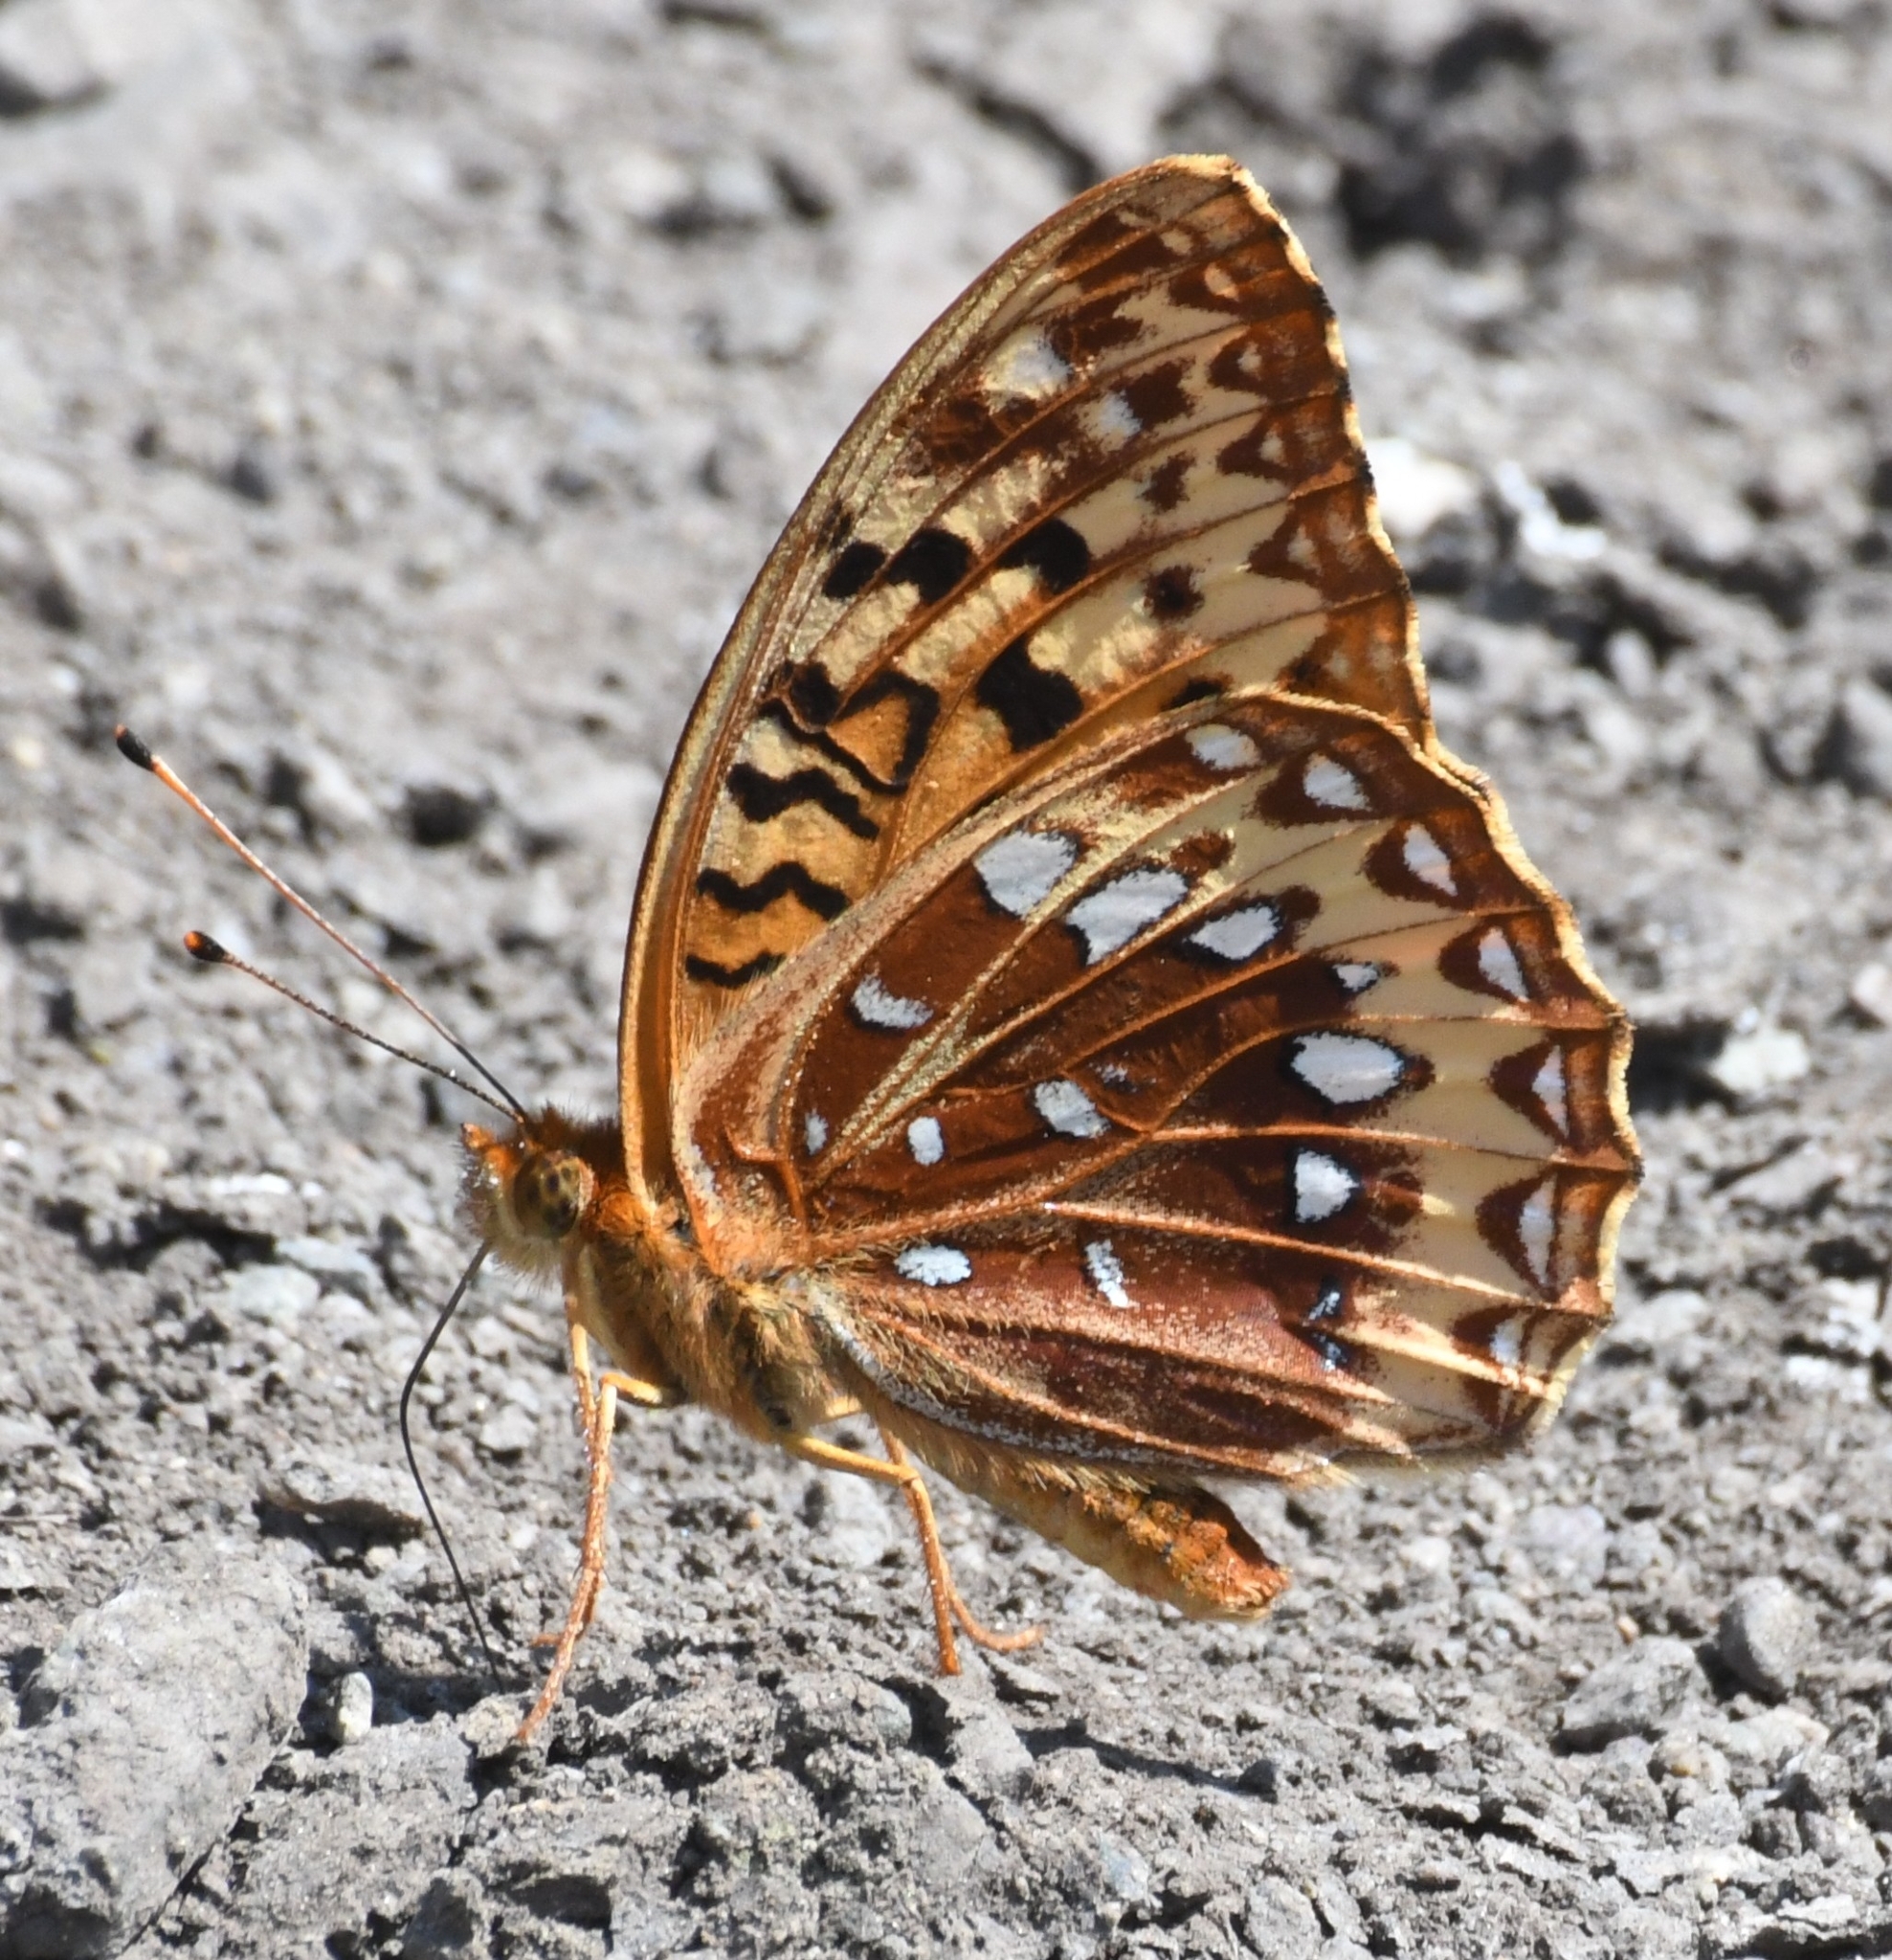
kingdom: Animalia
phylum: Arthropoda
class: Insecta
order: Lepidoptera
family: Nymphalidae
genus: Speyeria
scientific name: Speyeria cybele
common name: Great spangled fritillary
